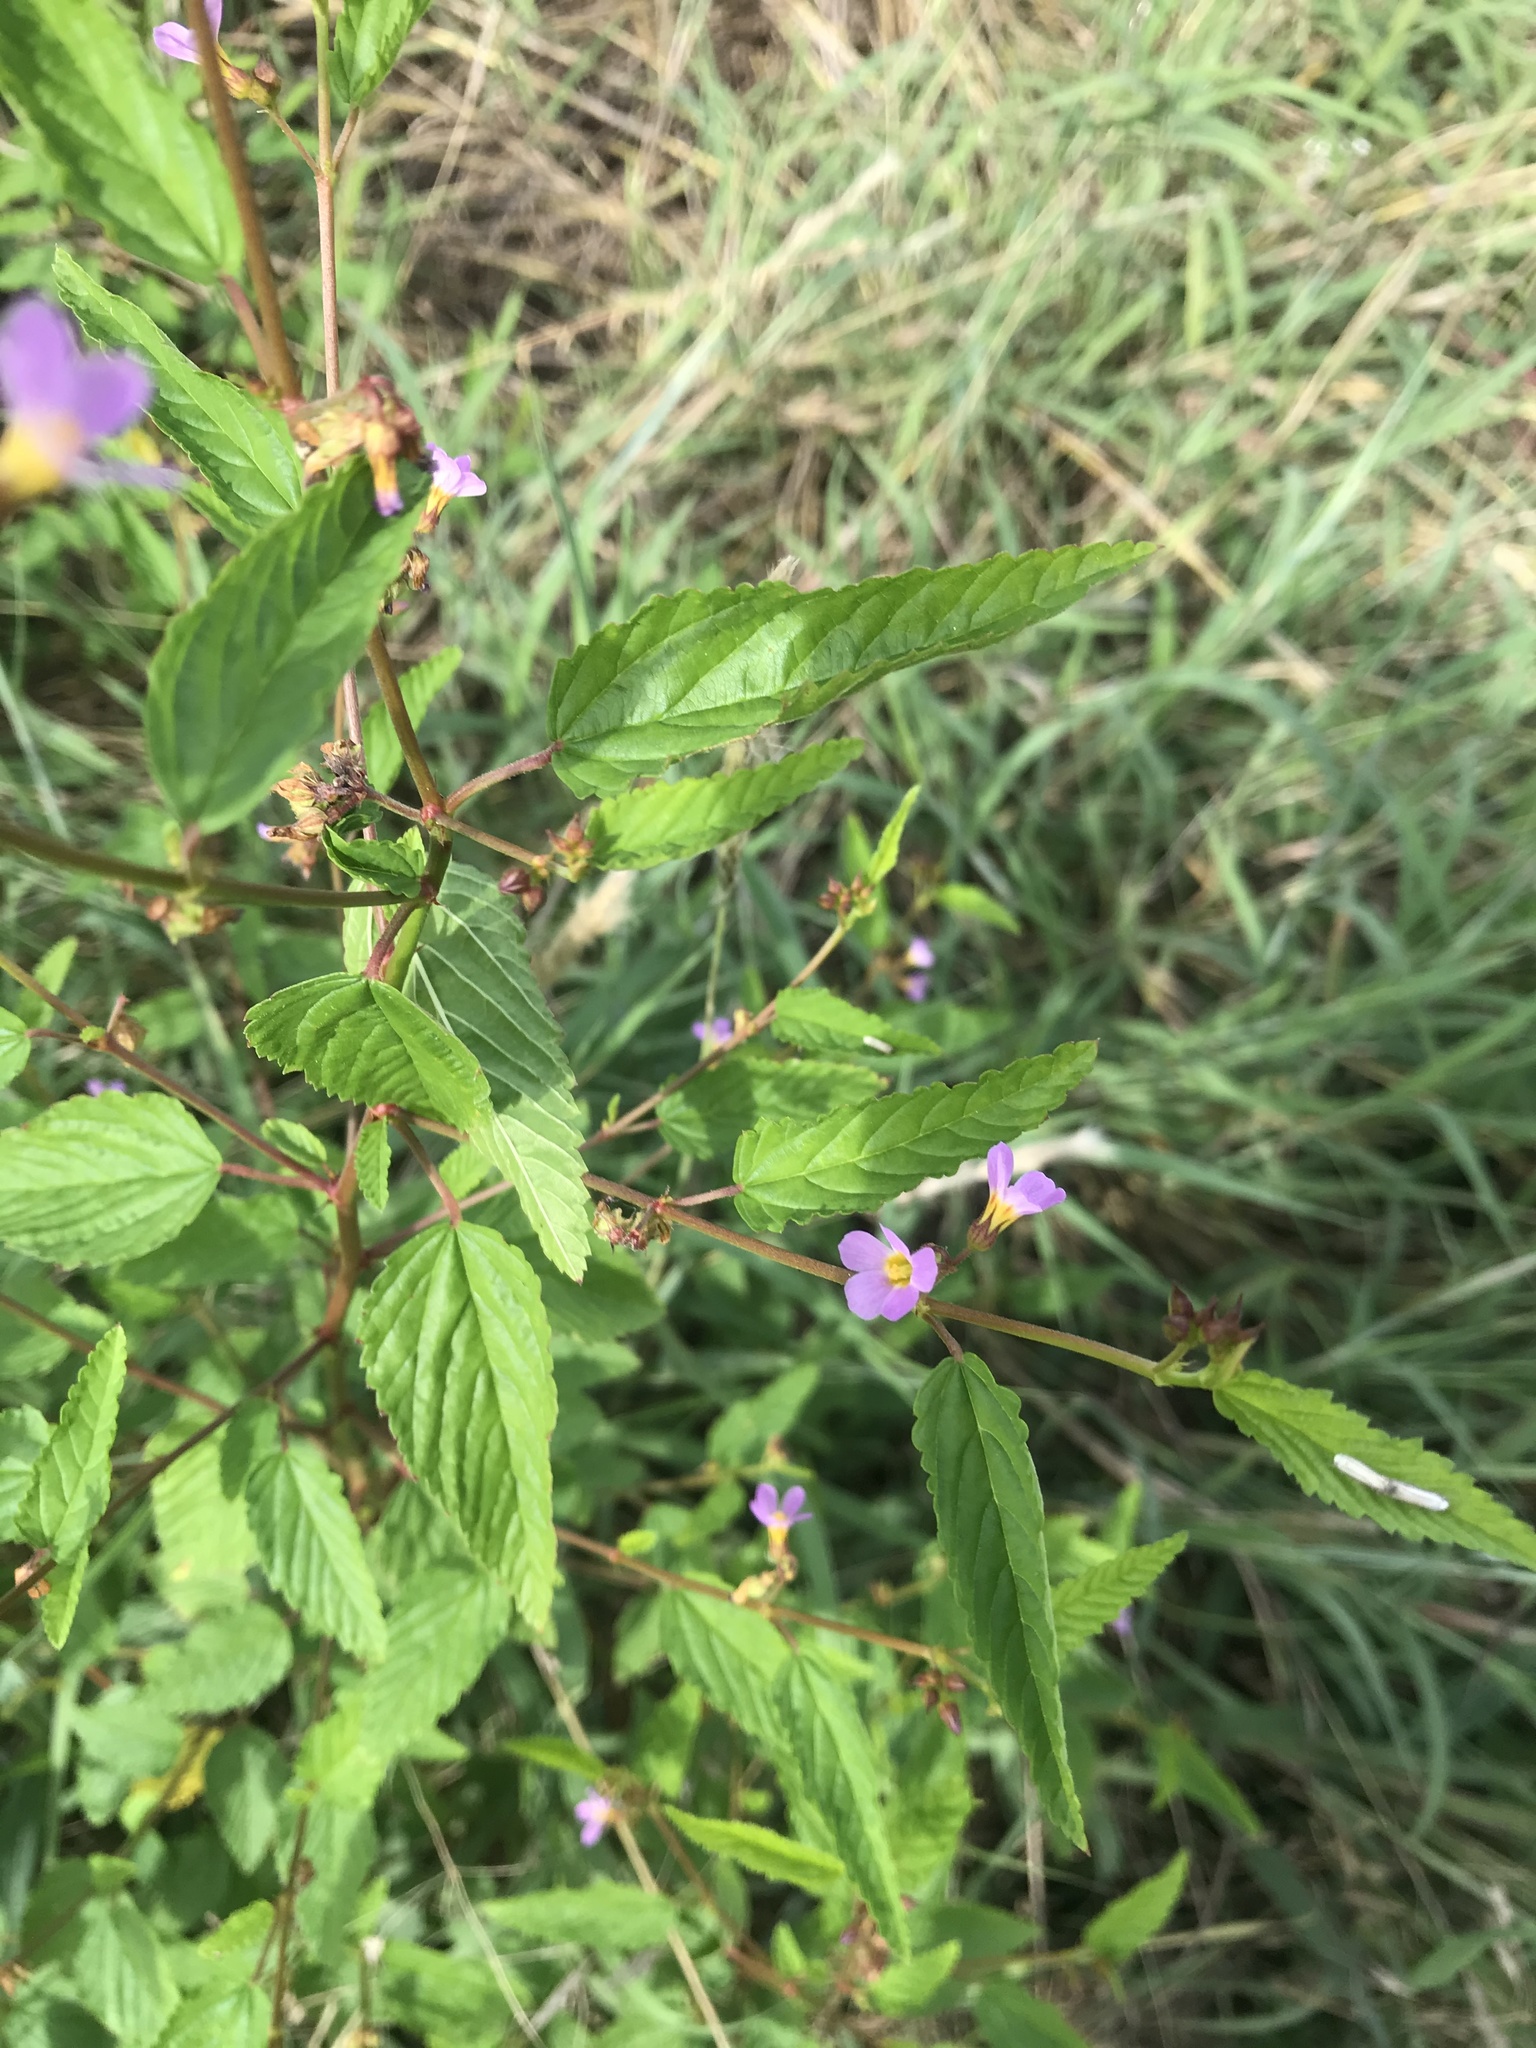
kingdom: Plantae
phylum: Tracheophyta
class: Magnoliopsida
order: Malvales
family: Malvaceae
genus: Melochia
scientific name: Melochia pyramidata
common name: Pyramidflower
